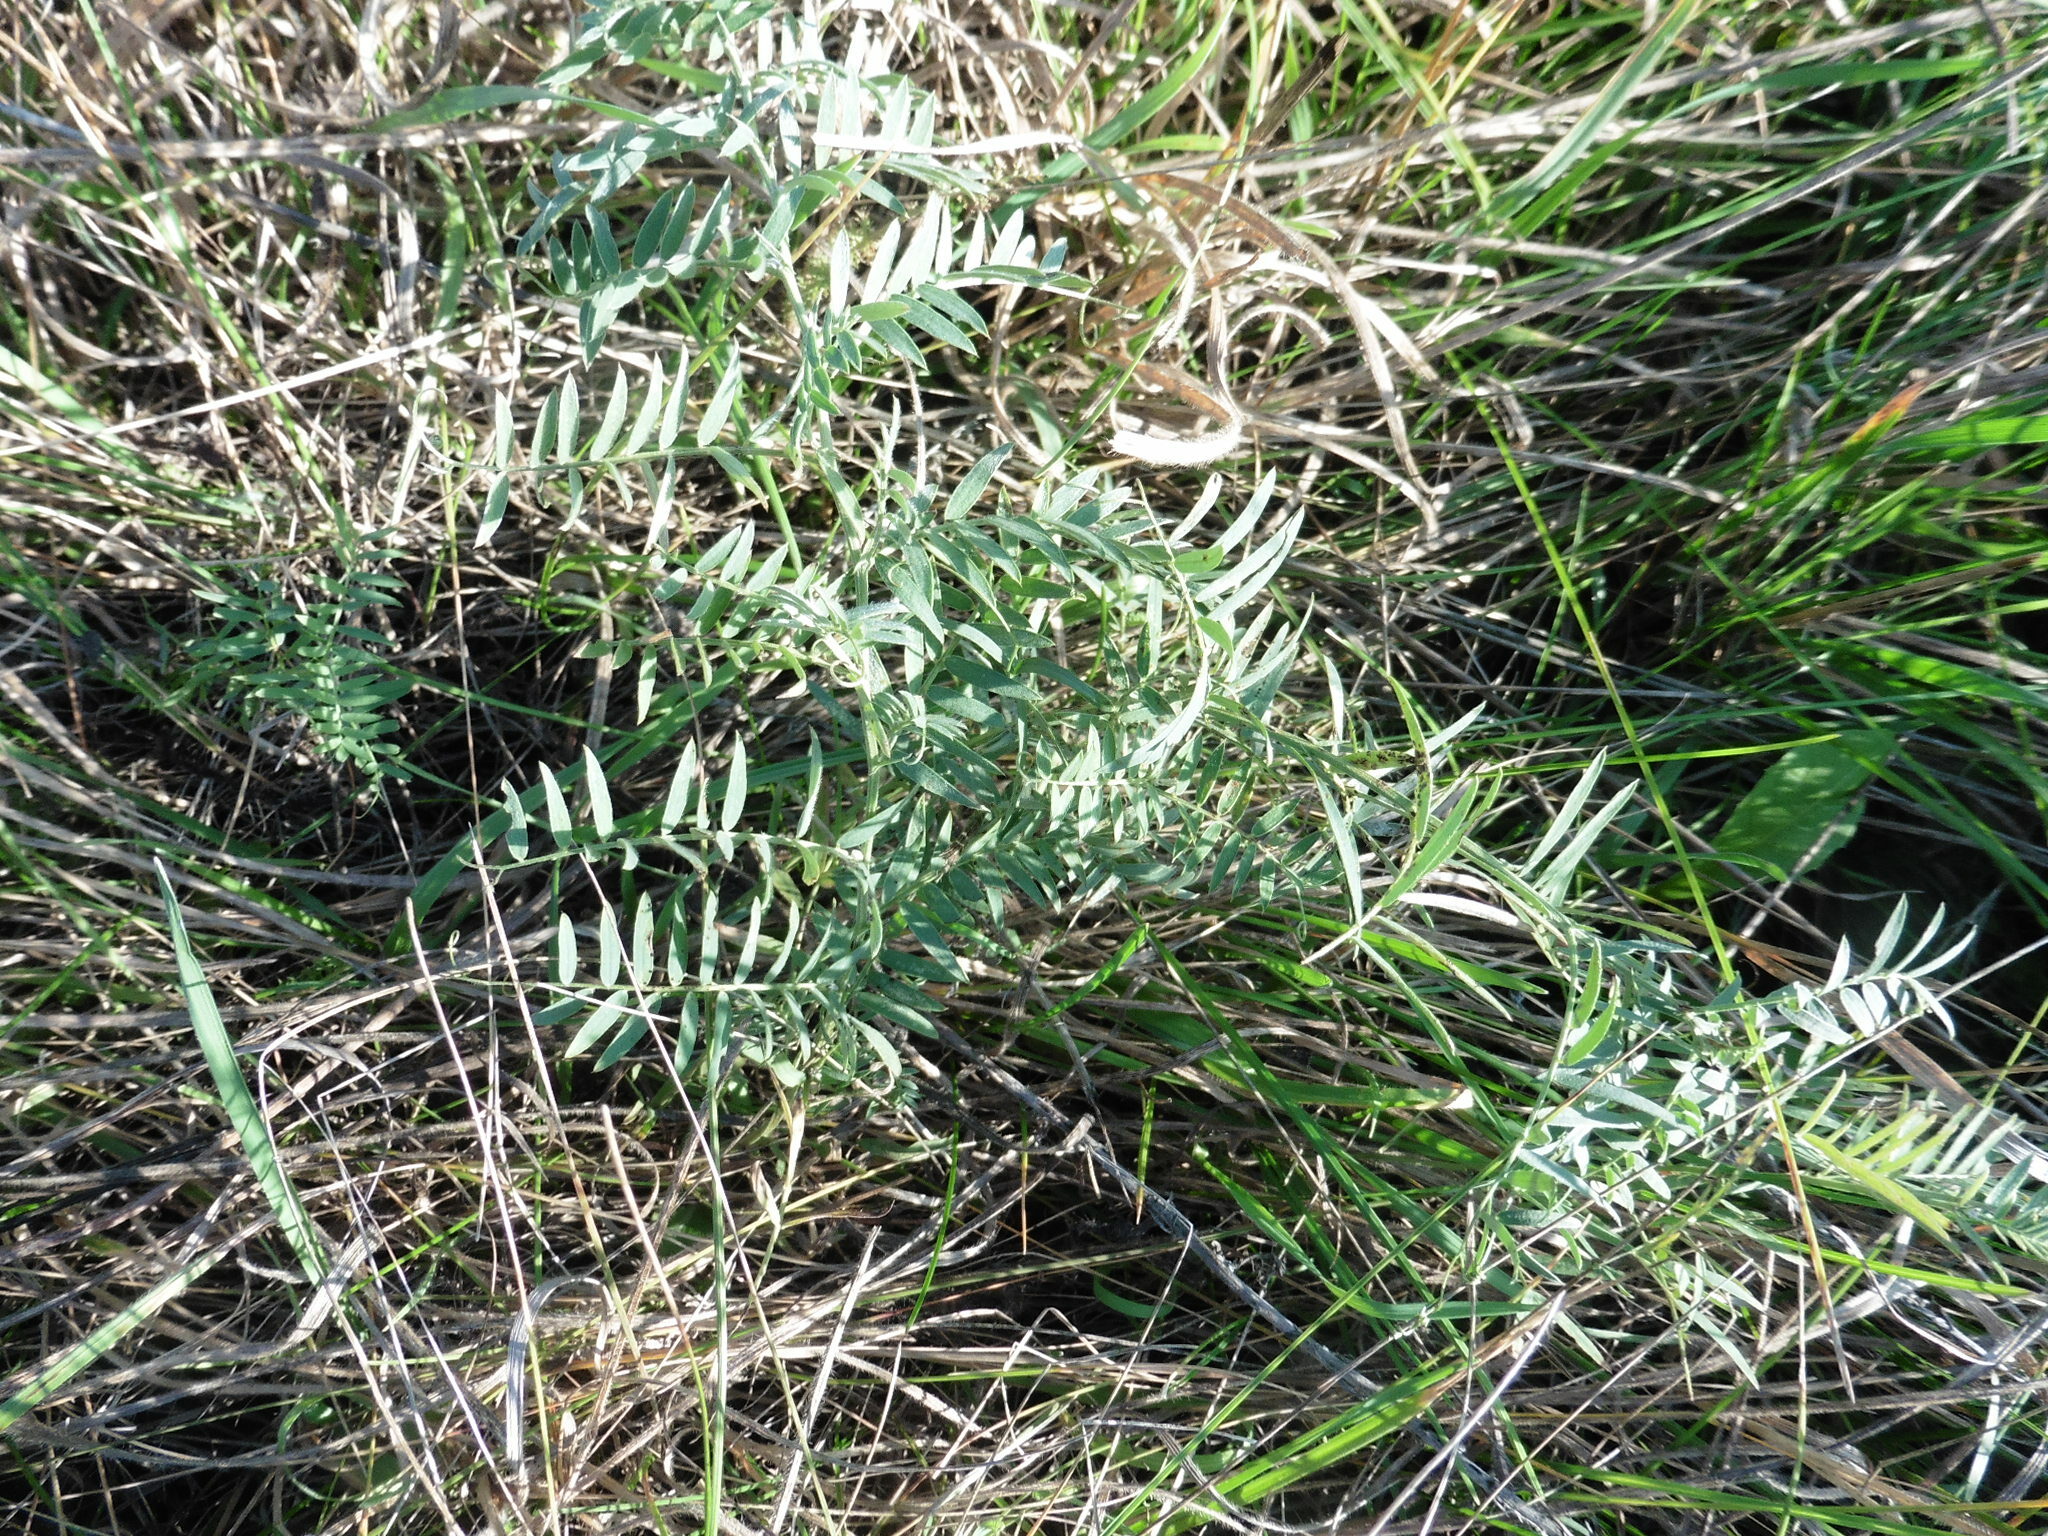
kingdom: Plantae
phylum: Tracheophyta
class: Magnoliopsida
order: Fabales
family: Fabaceae
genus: Vicia
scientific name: Vicia cracca
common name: Bird vetch
